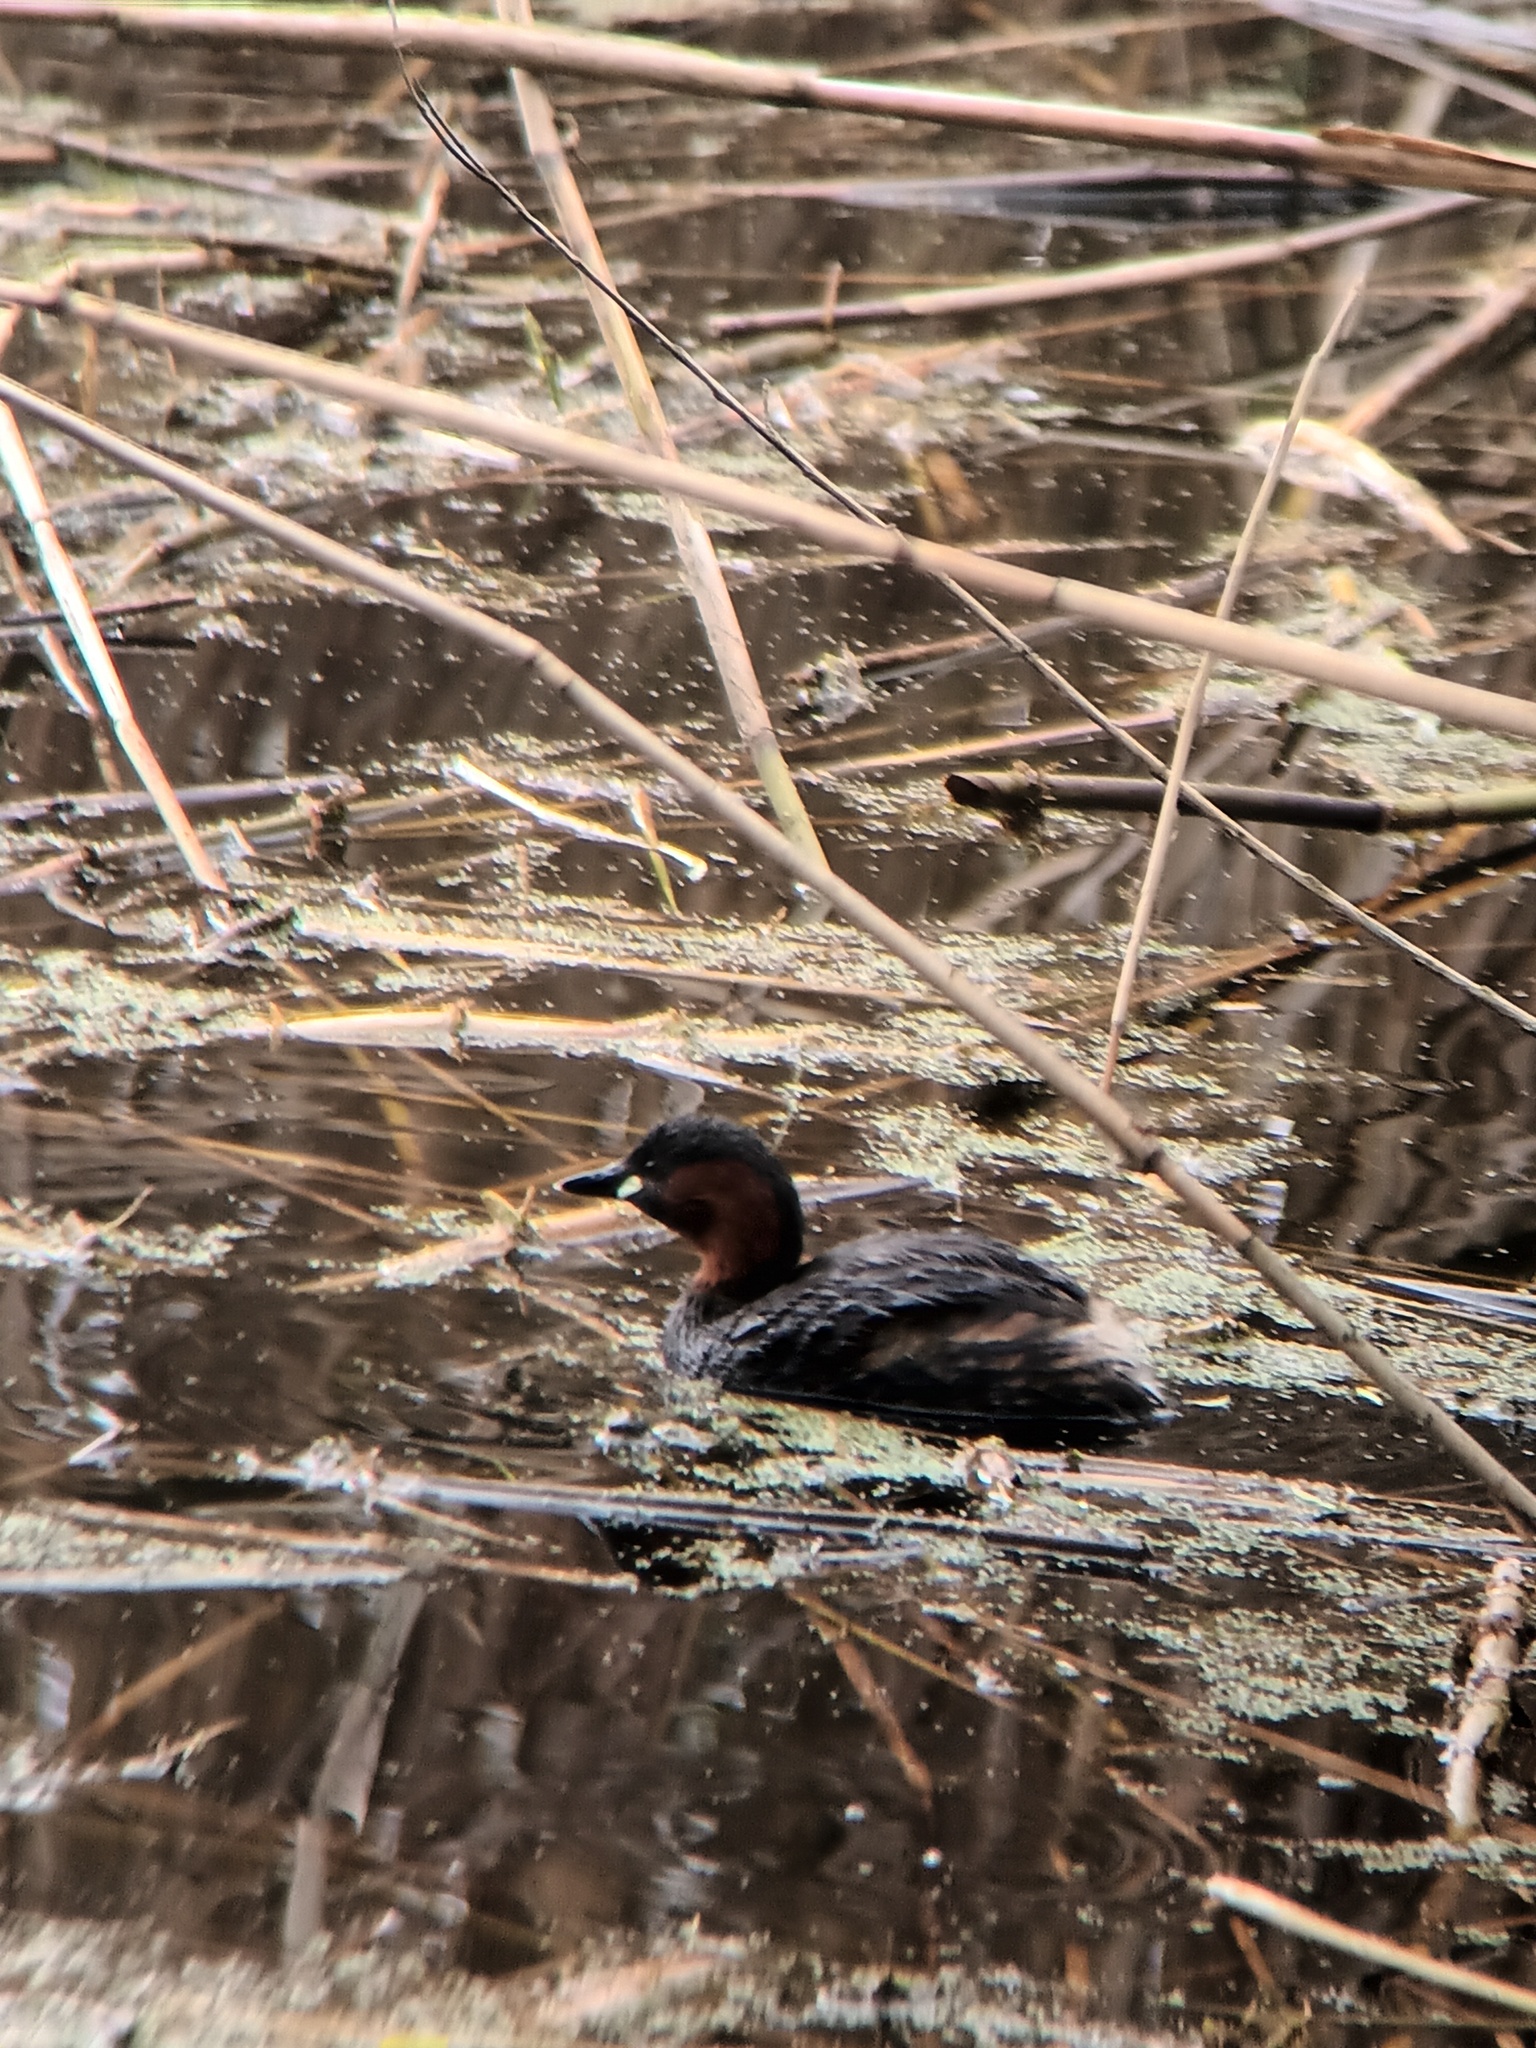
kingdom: Animalia
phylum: Chordata
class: Aves
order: Podicipediformes
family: Podicipedidae
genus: Tachybaptus
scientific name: Tachybaptus ruficollis
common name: Little grebe
